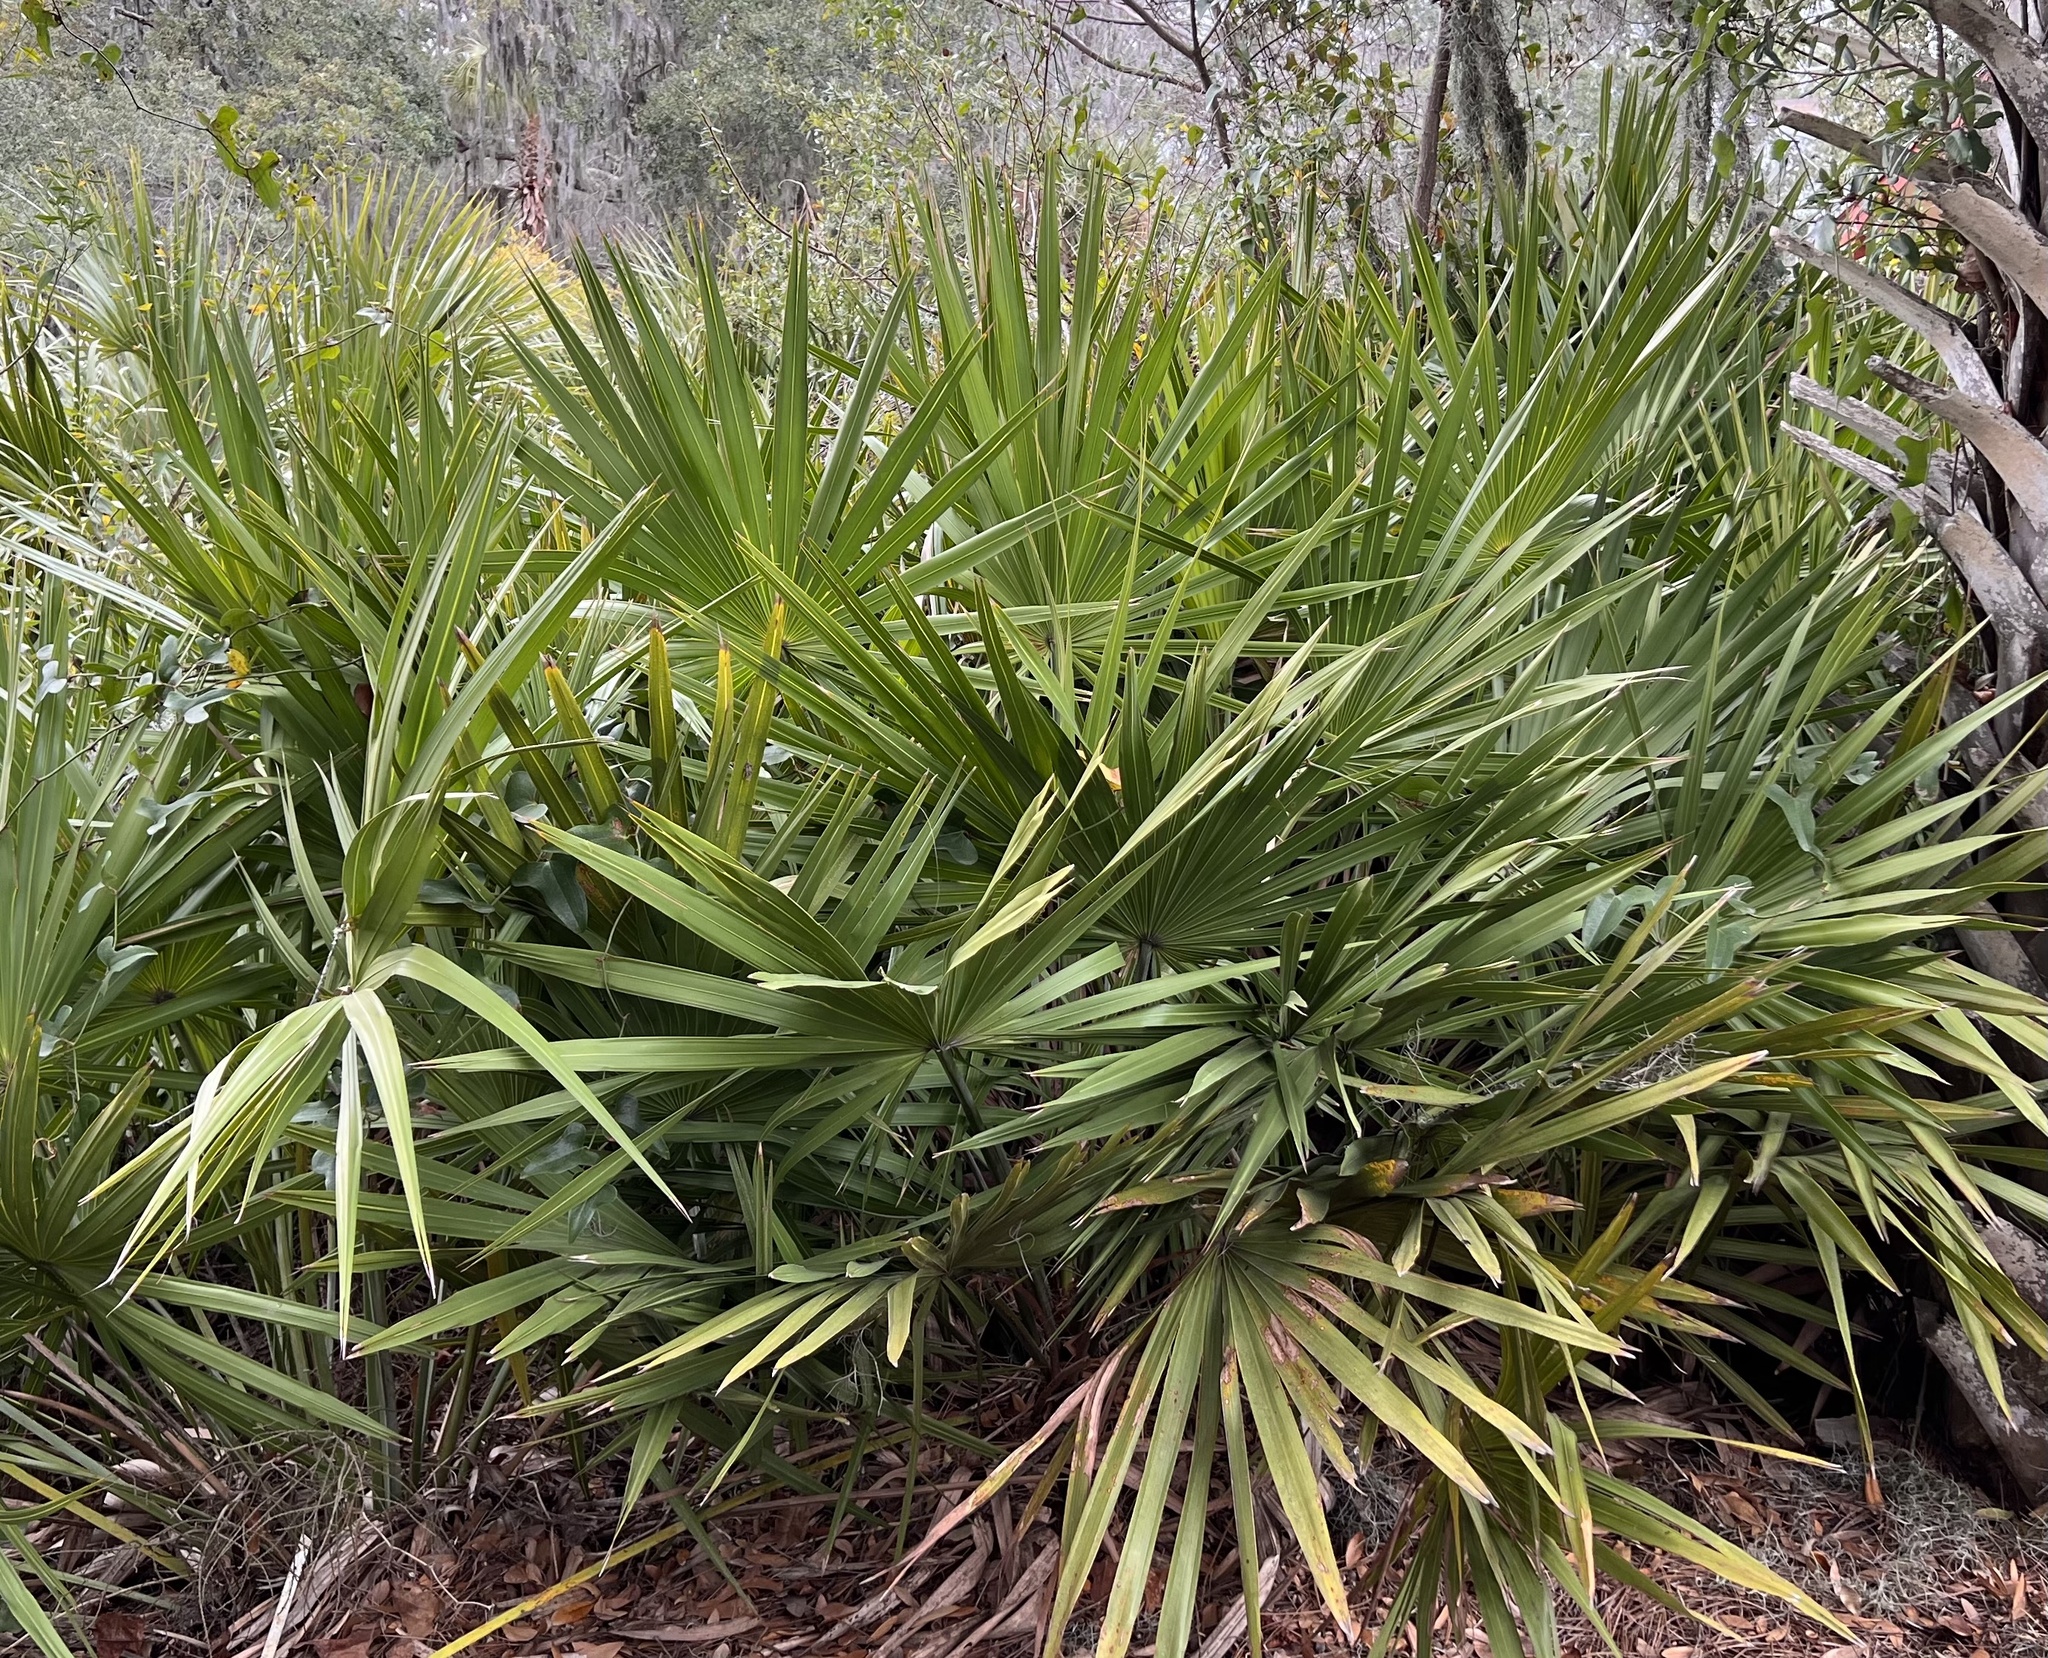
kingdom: Plantae
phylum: Tracheophyta
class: Liliopsida
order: Arecales
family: Arecaceae
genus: Serenoa
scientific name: Serenoa repens
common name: Saw-palmetto
